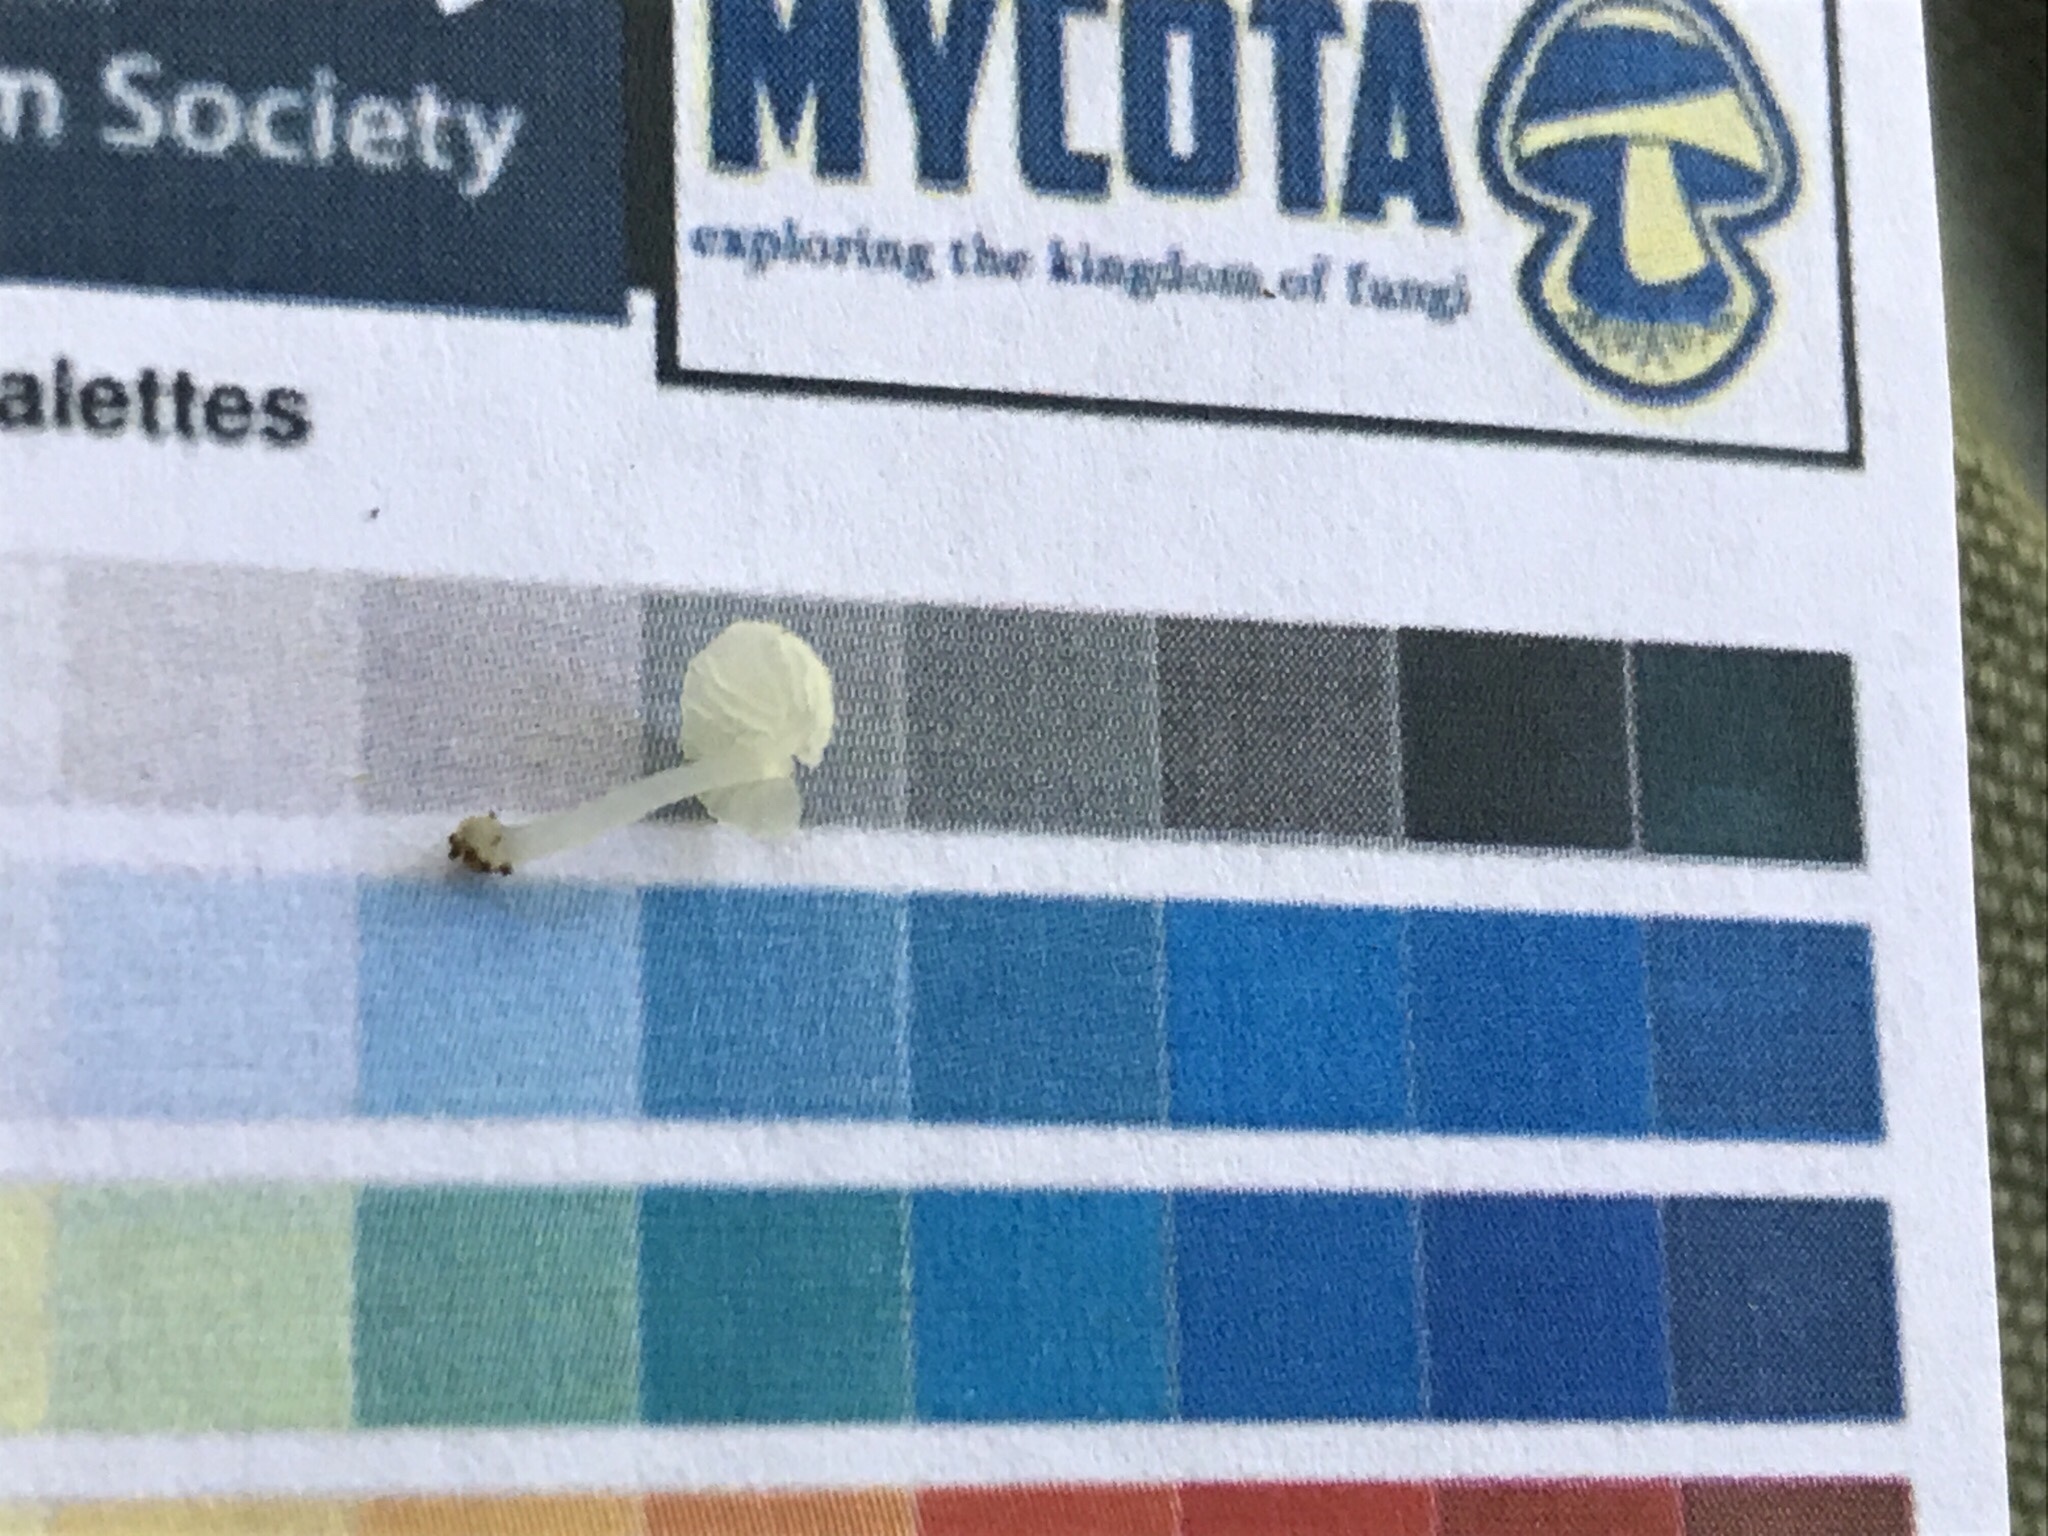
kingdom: Fungi
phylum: Basidiomycota
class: Agaricomycetes
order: Agaricales
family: Tricholomataceae
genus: Delicatula
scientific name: Delicatula integrella
